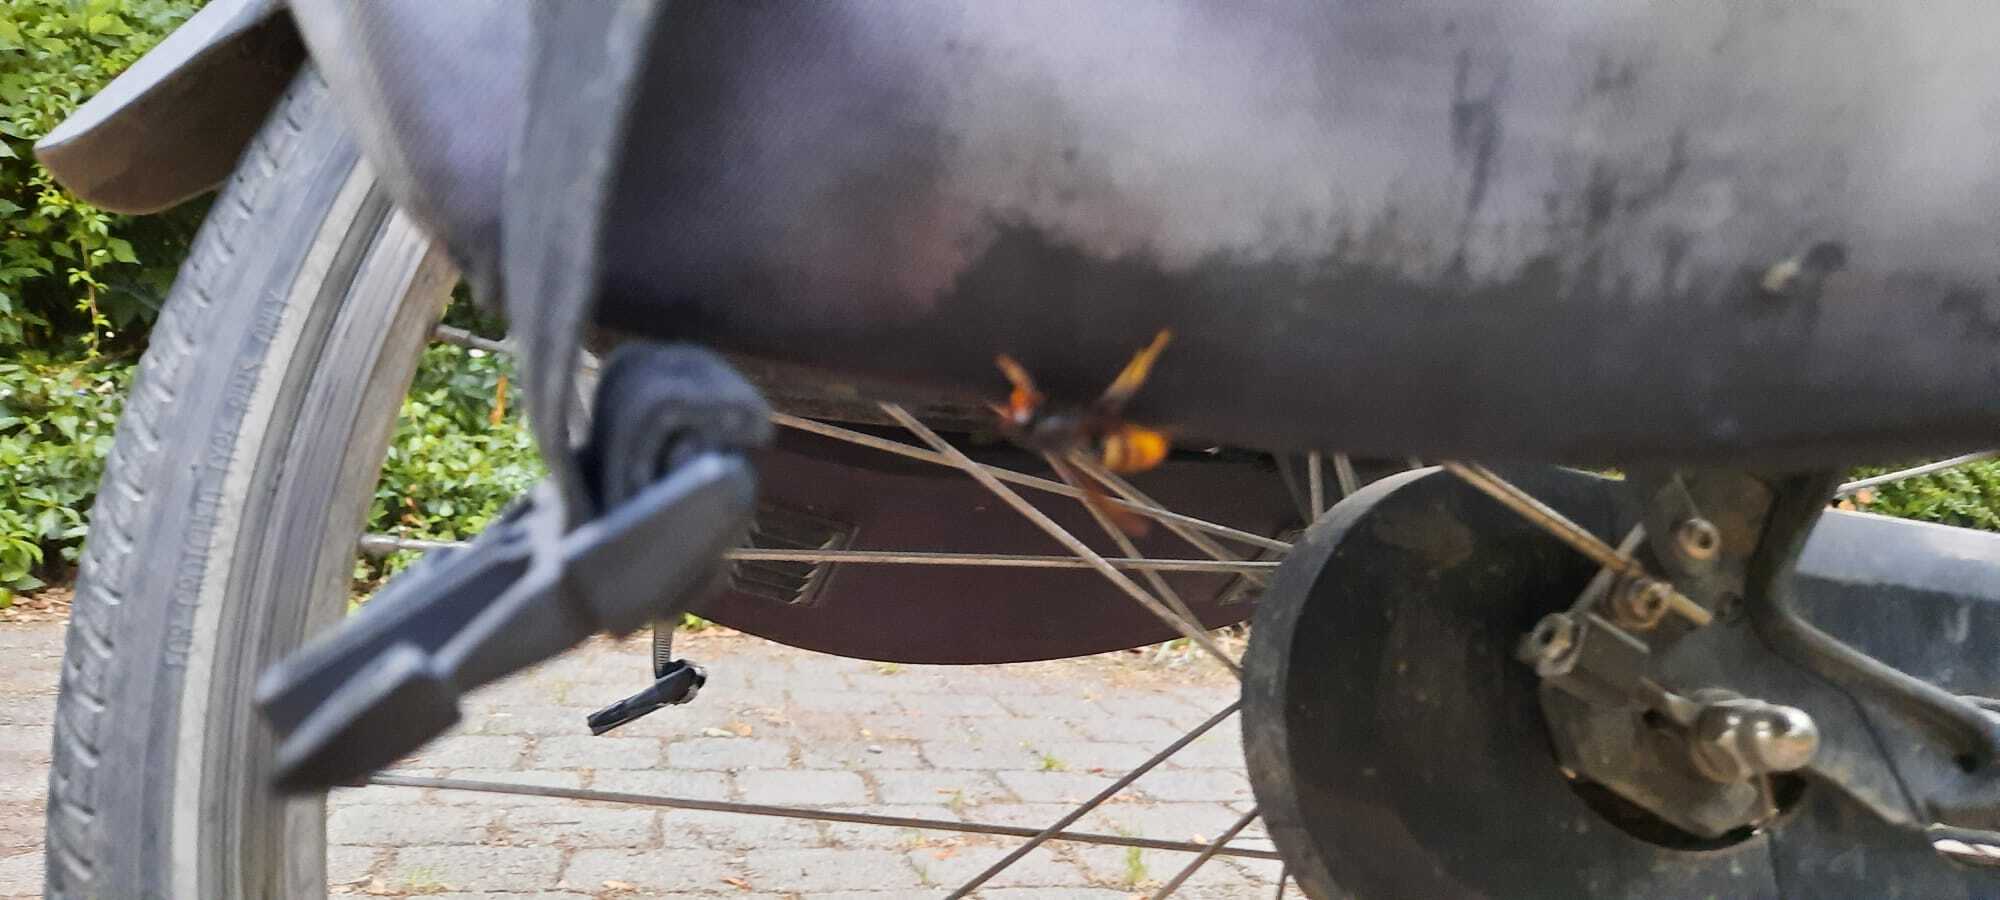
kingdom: Animalia
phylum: Arthropoda
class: Insecta
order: Hymenoptera
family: Vespidae
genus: Vespa
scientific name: Vespa velutina
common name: Asian hornet
